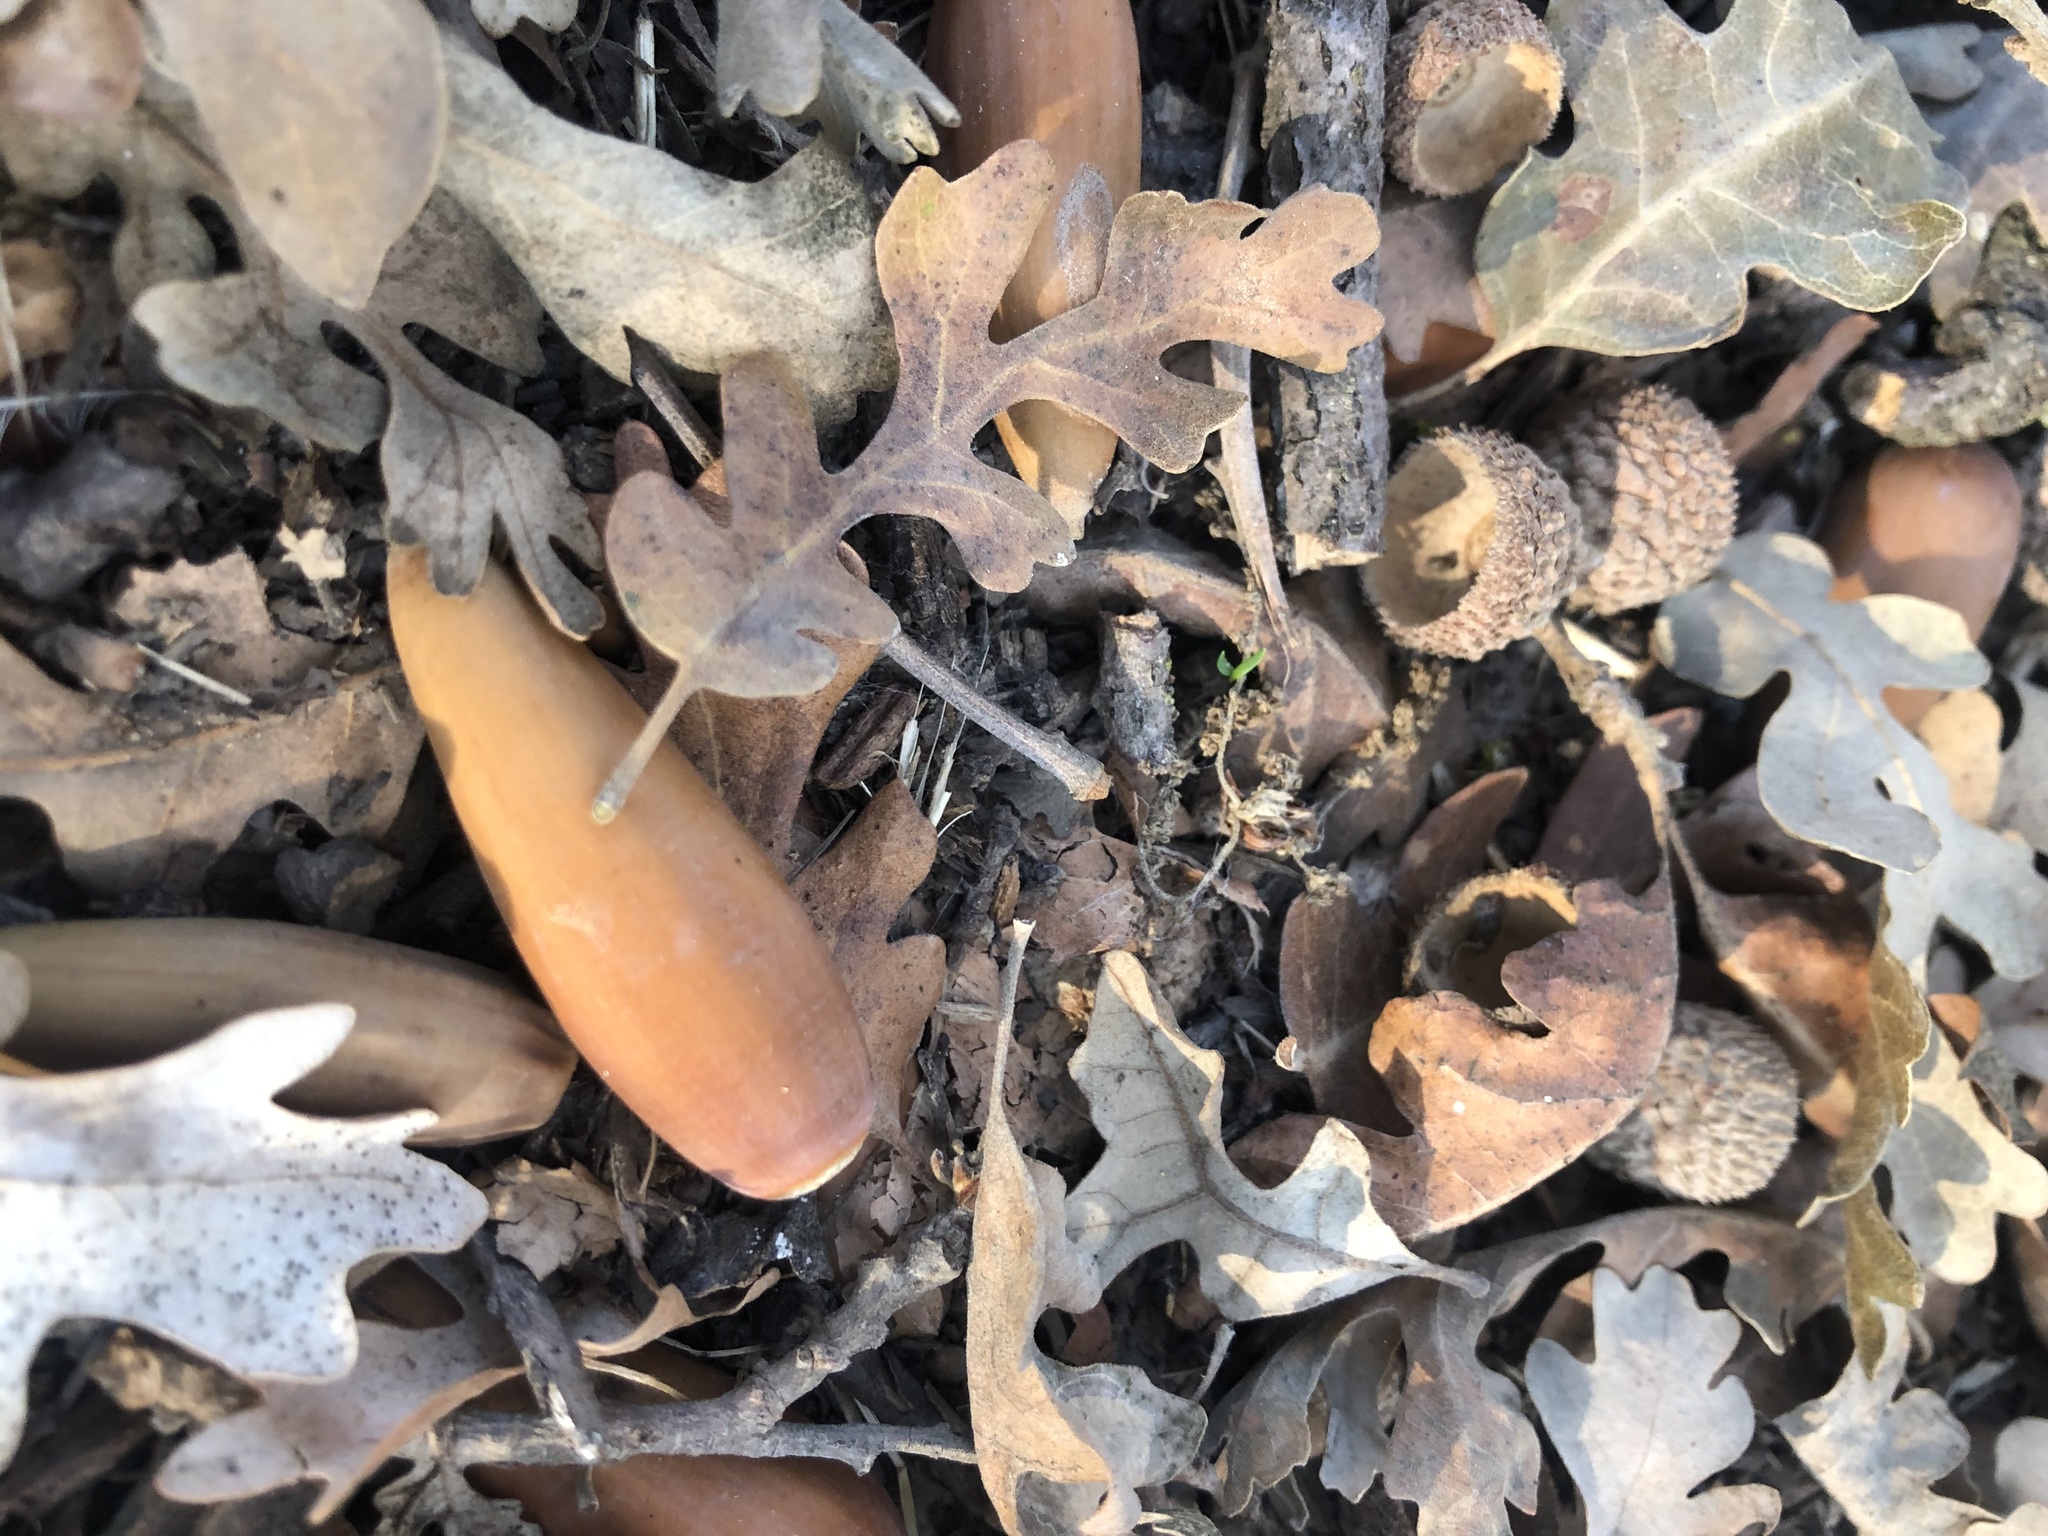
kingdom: Plantae
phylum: Tracheophyta
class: Magnoliopsida
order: Fagales
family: Fagaceae
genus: Quercus
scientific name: Quercus lobata
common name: Valley oak
